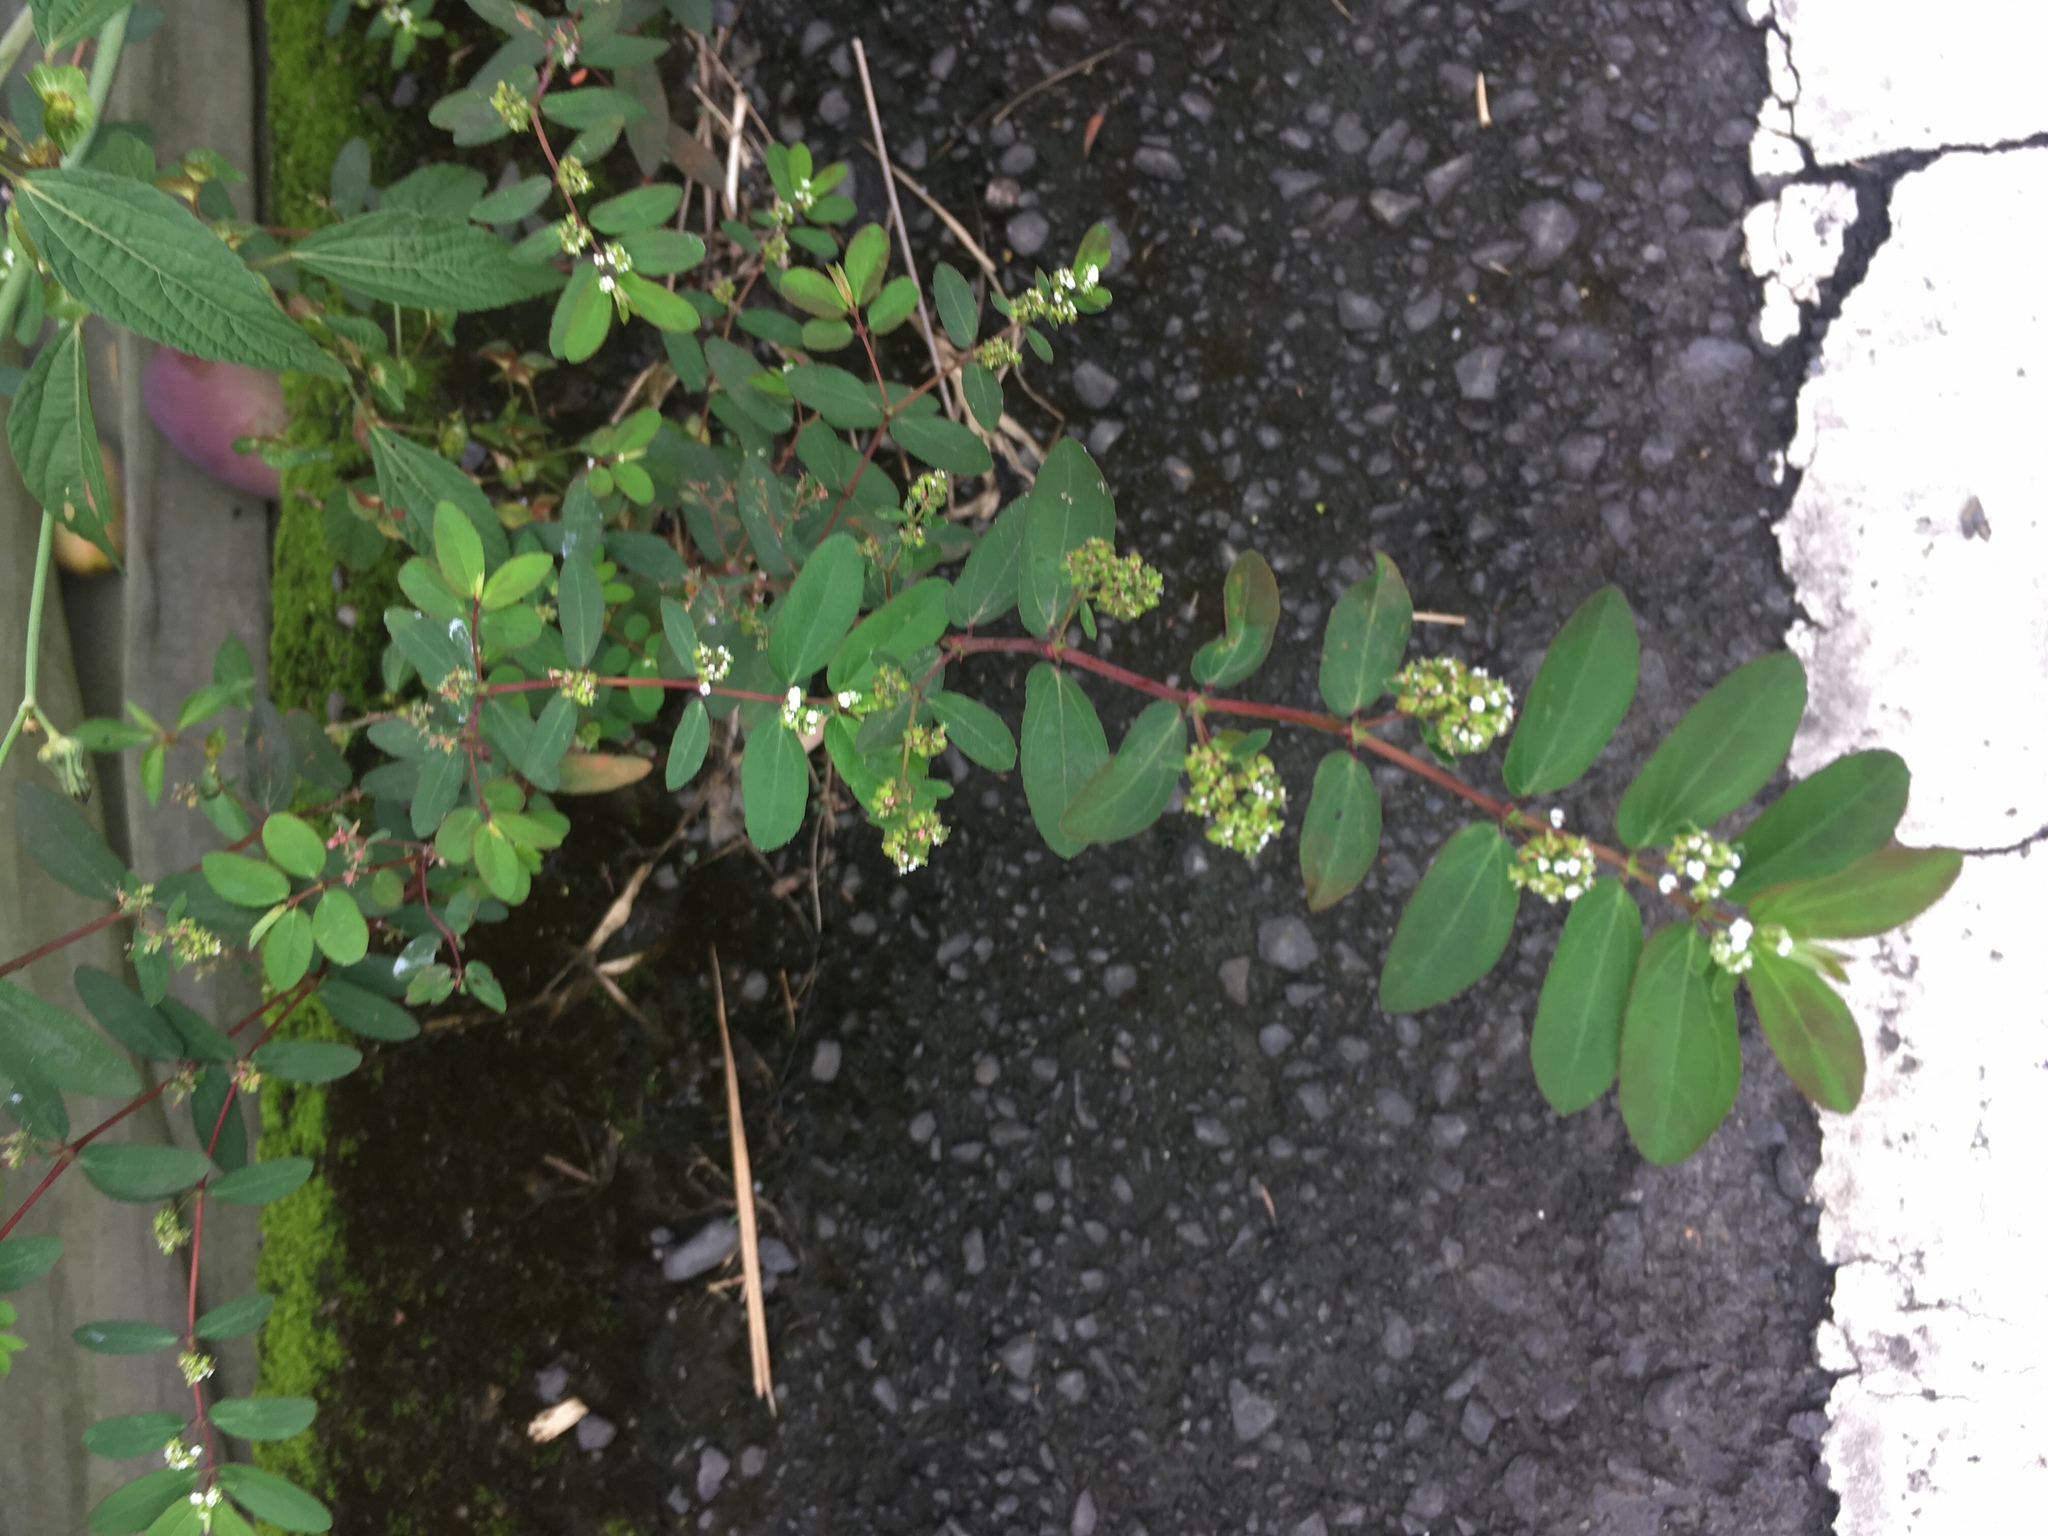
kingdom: Plantae
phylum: Tracheophyta
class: Magnoliopsida
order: Malpighiales
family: Euphorbiaceae
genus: Euphorbia
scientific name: Euphorbia hypericifolia
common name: Graceful sandmat
